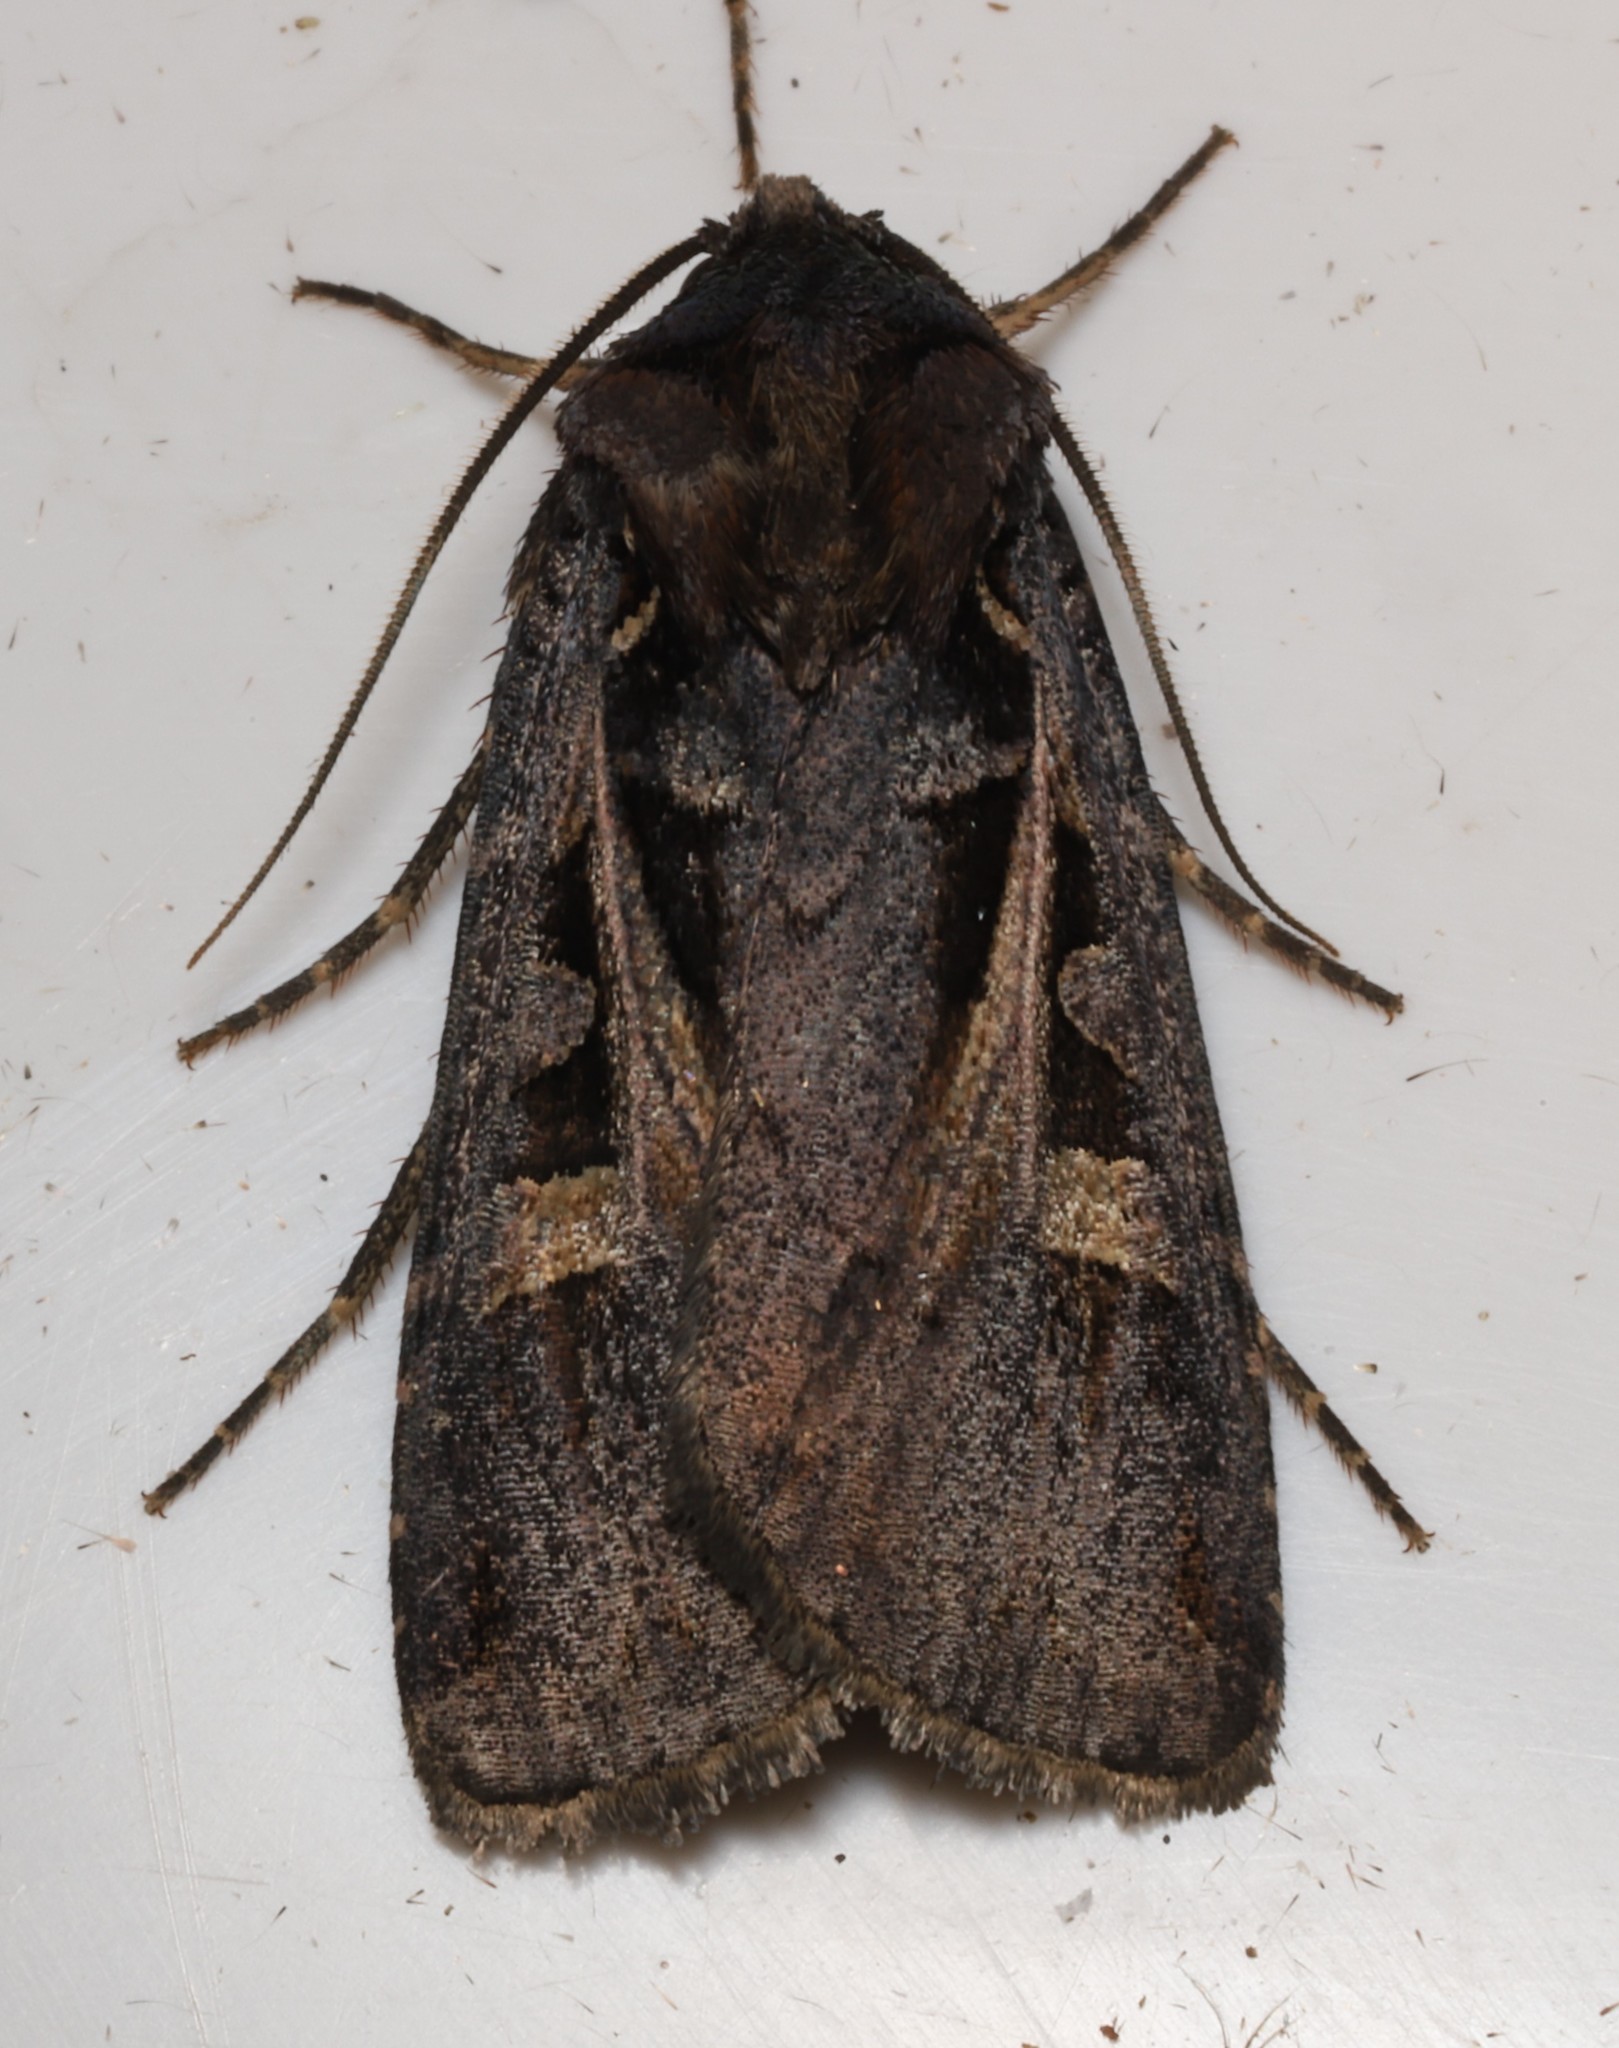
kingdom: Animalia
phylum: Arthropoda
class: Insecta
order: Lepidoptera
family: Noctuidae
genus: Feltia
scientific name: Feltia herilis
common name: Master's dart
